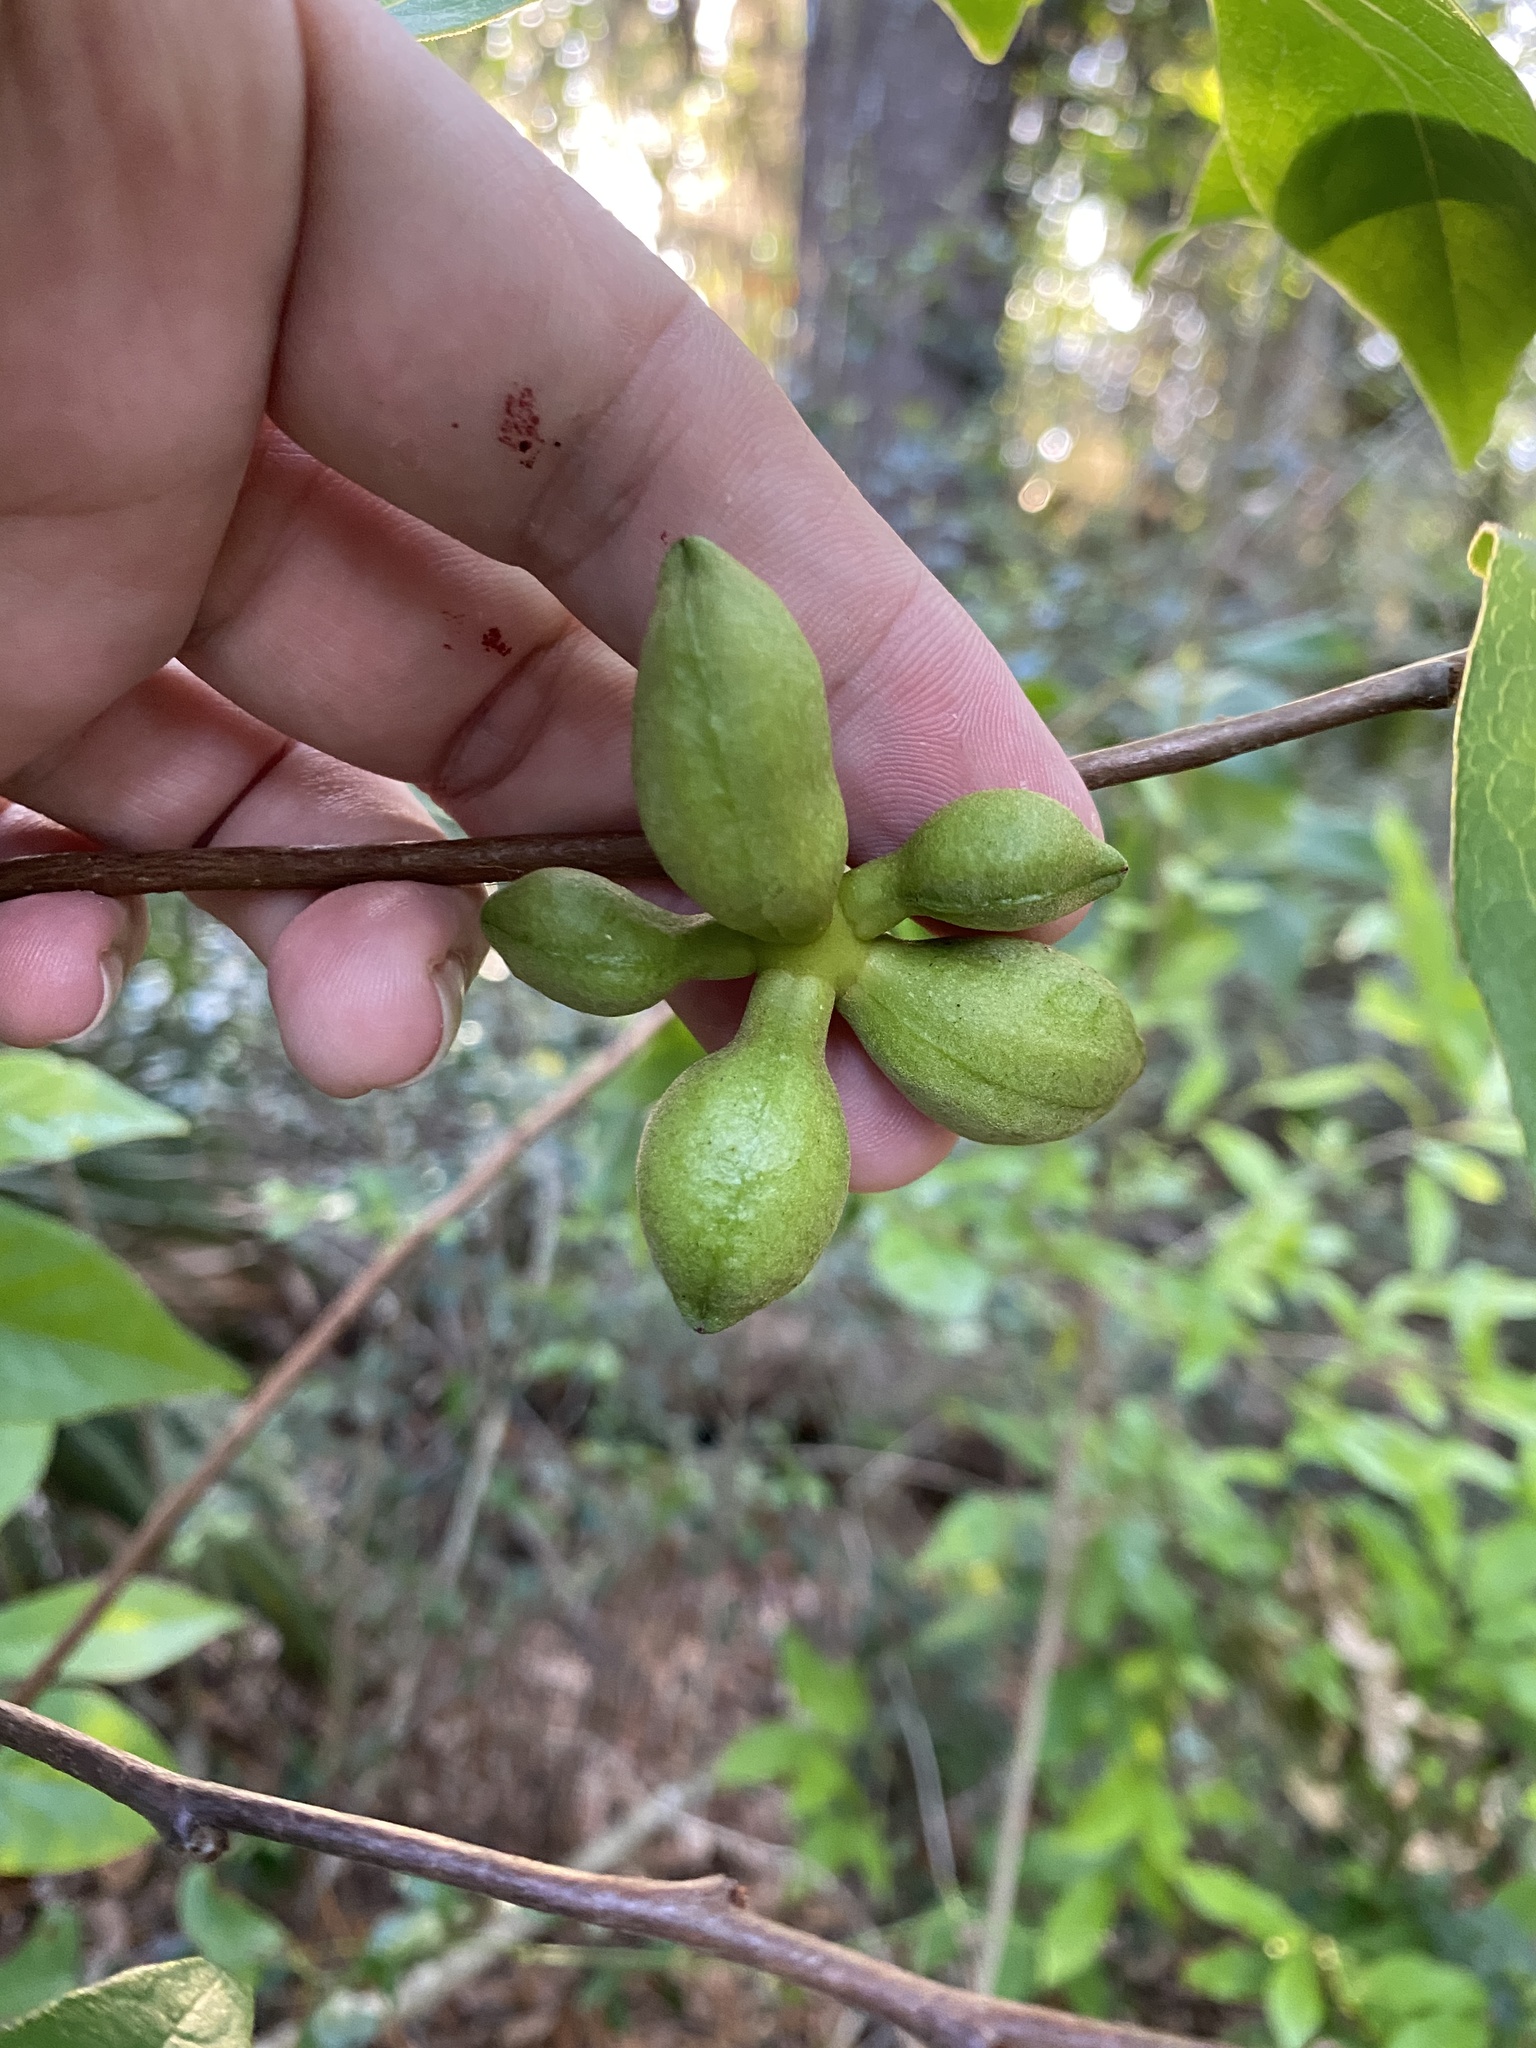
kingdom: Plantae
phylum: Tracheophyta
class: Magnoliopsida
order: Magnoliales
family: Annonaceae
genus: Asimina
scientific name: Asimina parviflora
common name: Dwarf pawpaw
